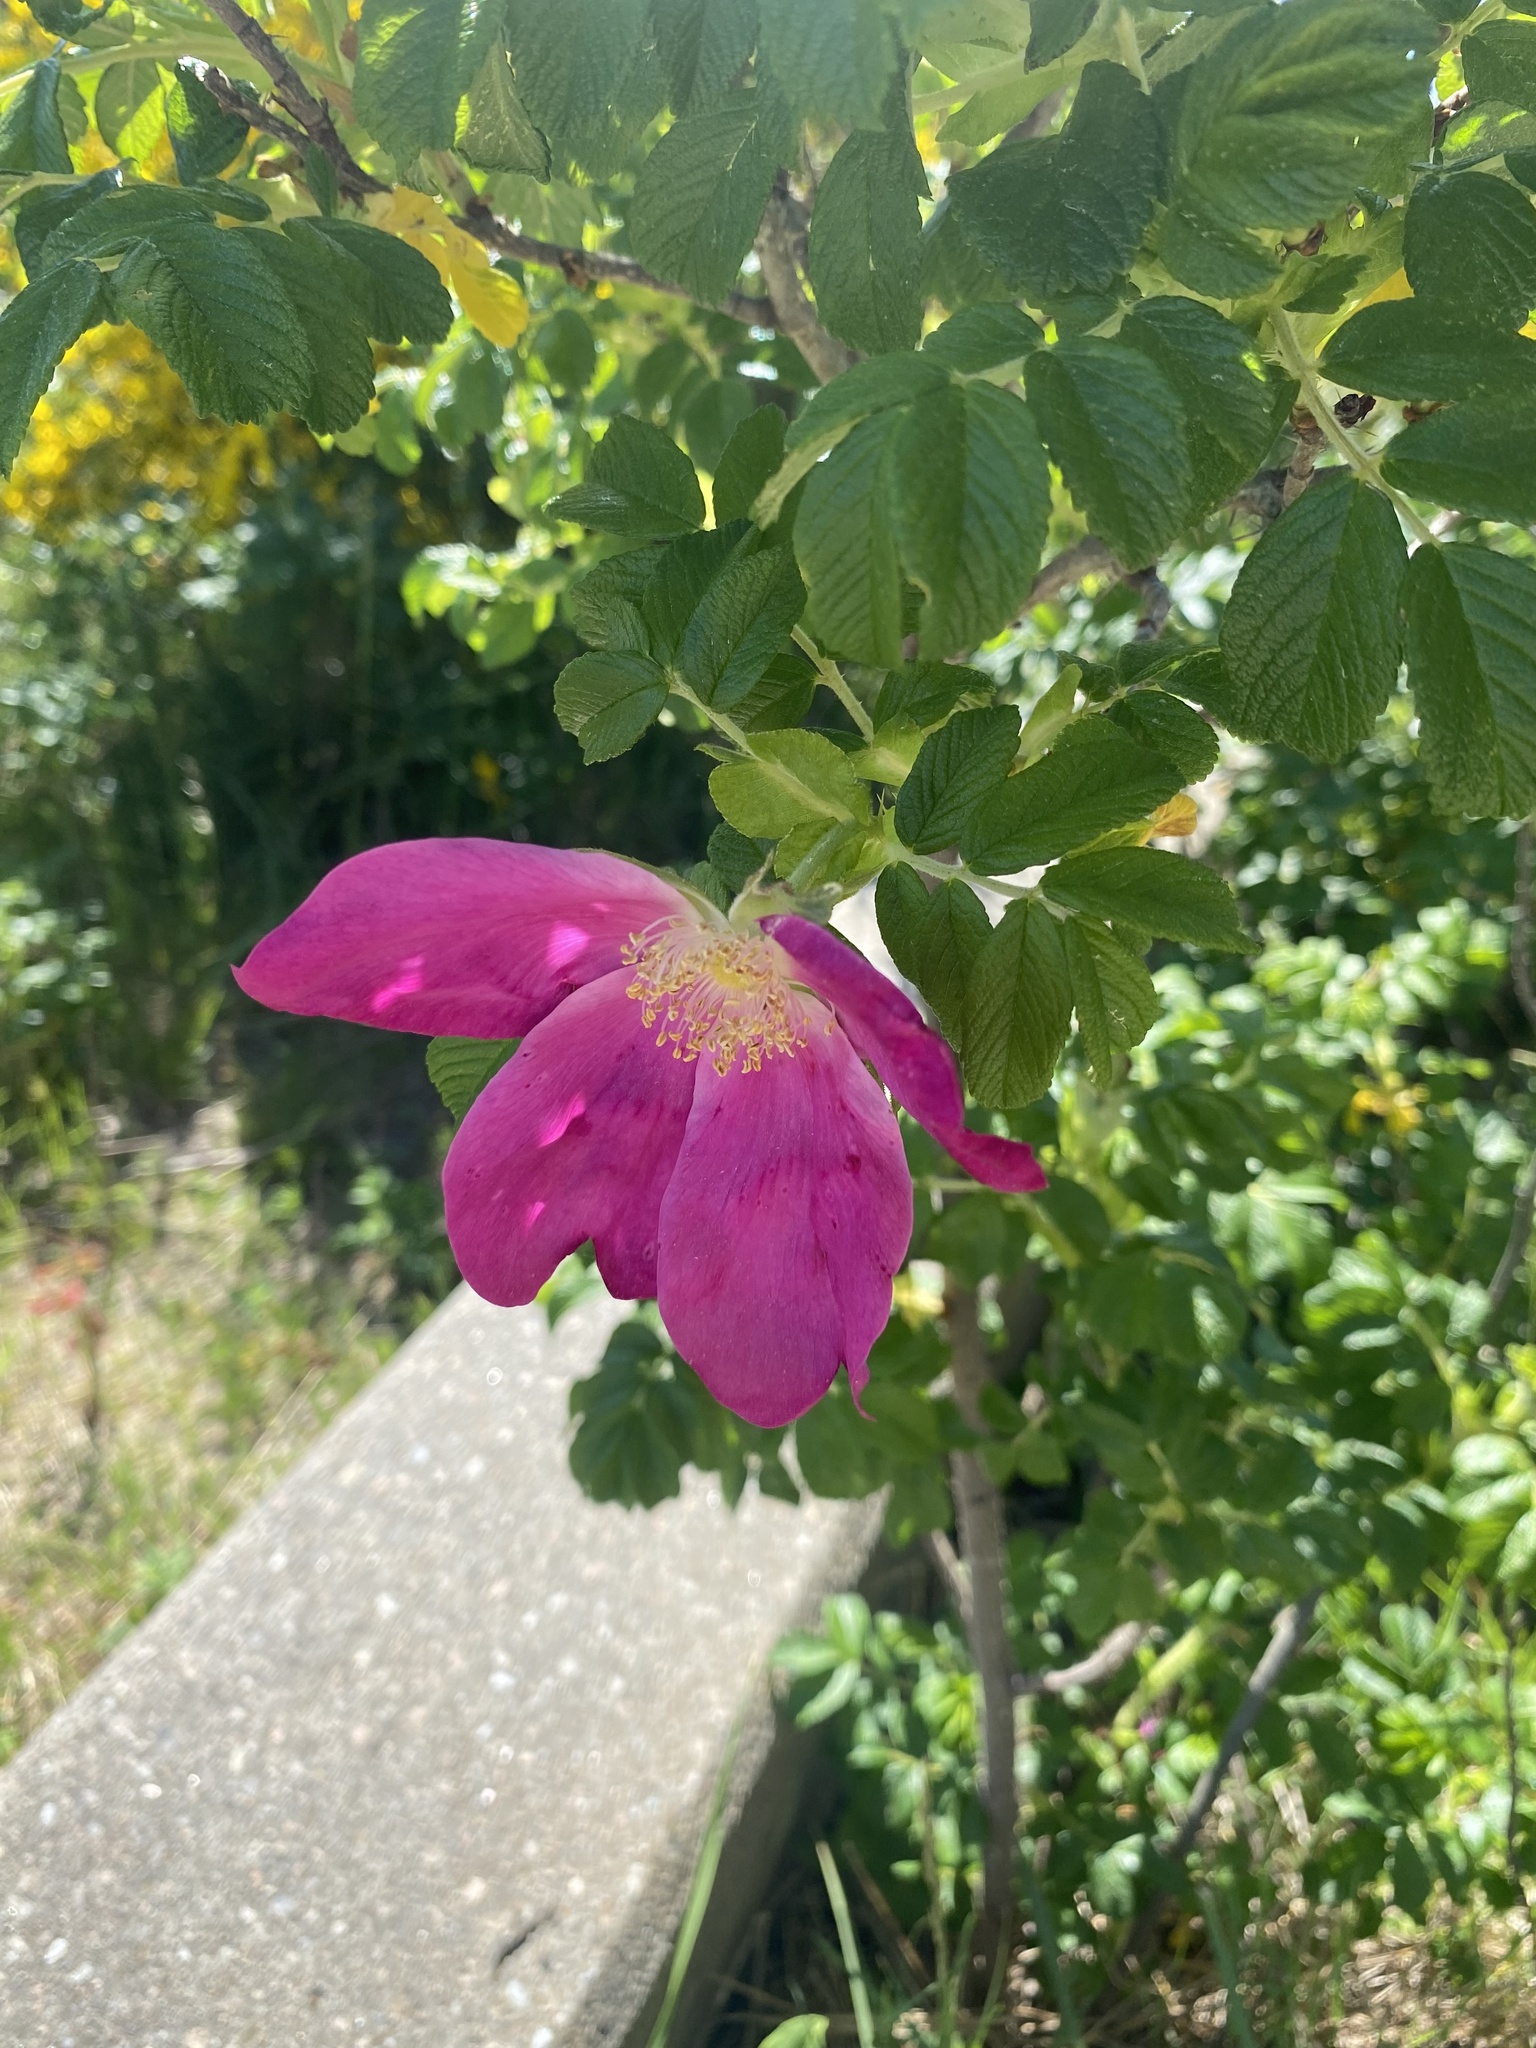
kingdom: Plantae
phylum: Tracheophyta
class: Magnoliopsida
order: Rosales
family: Rosaceae
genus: Rosa
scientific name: Rosa rugosa
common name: Japanese rose
